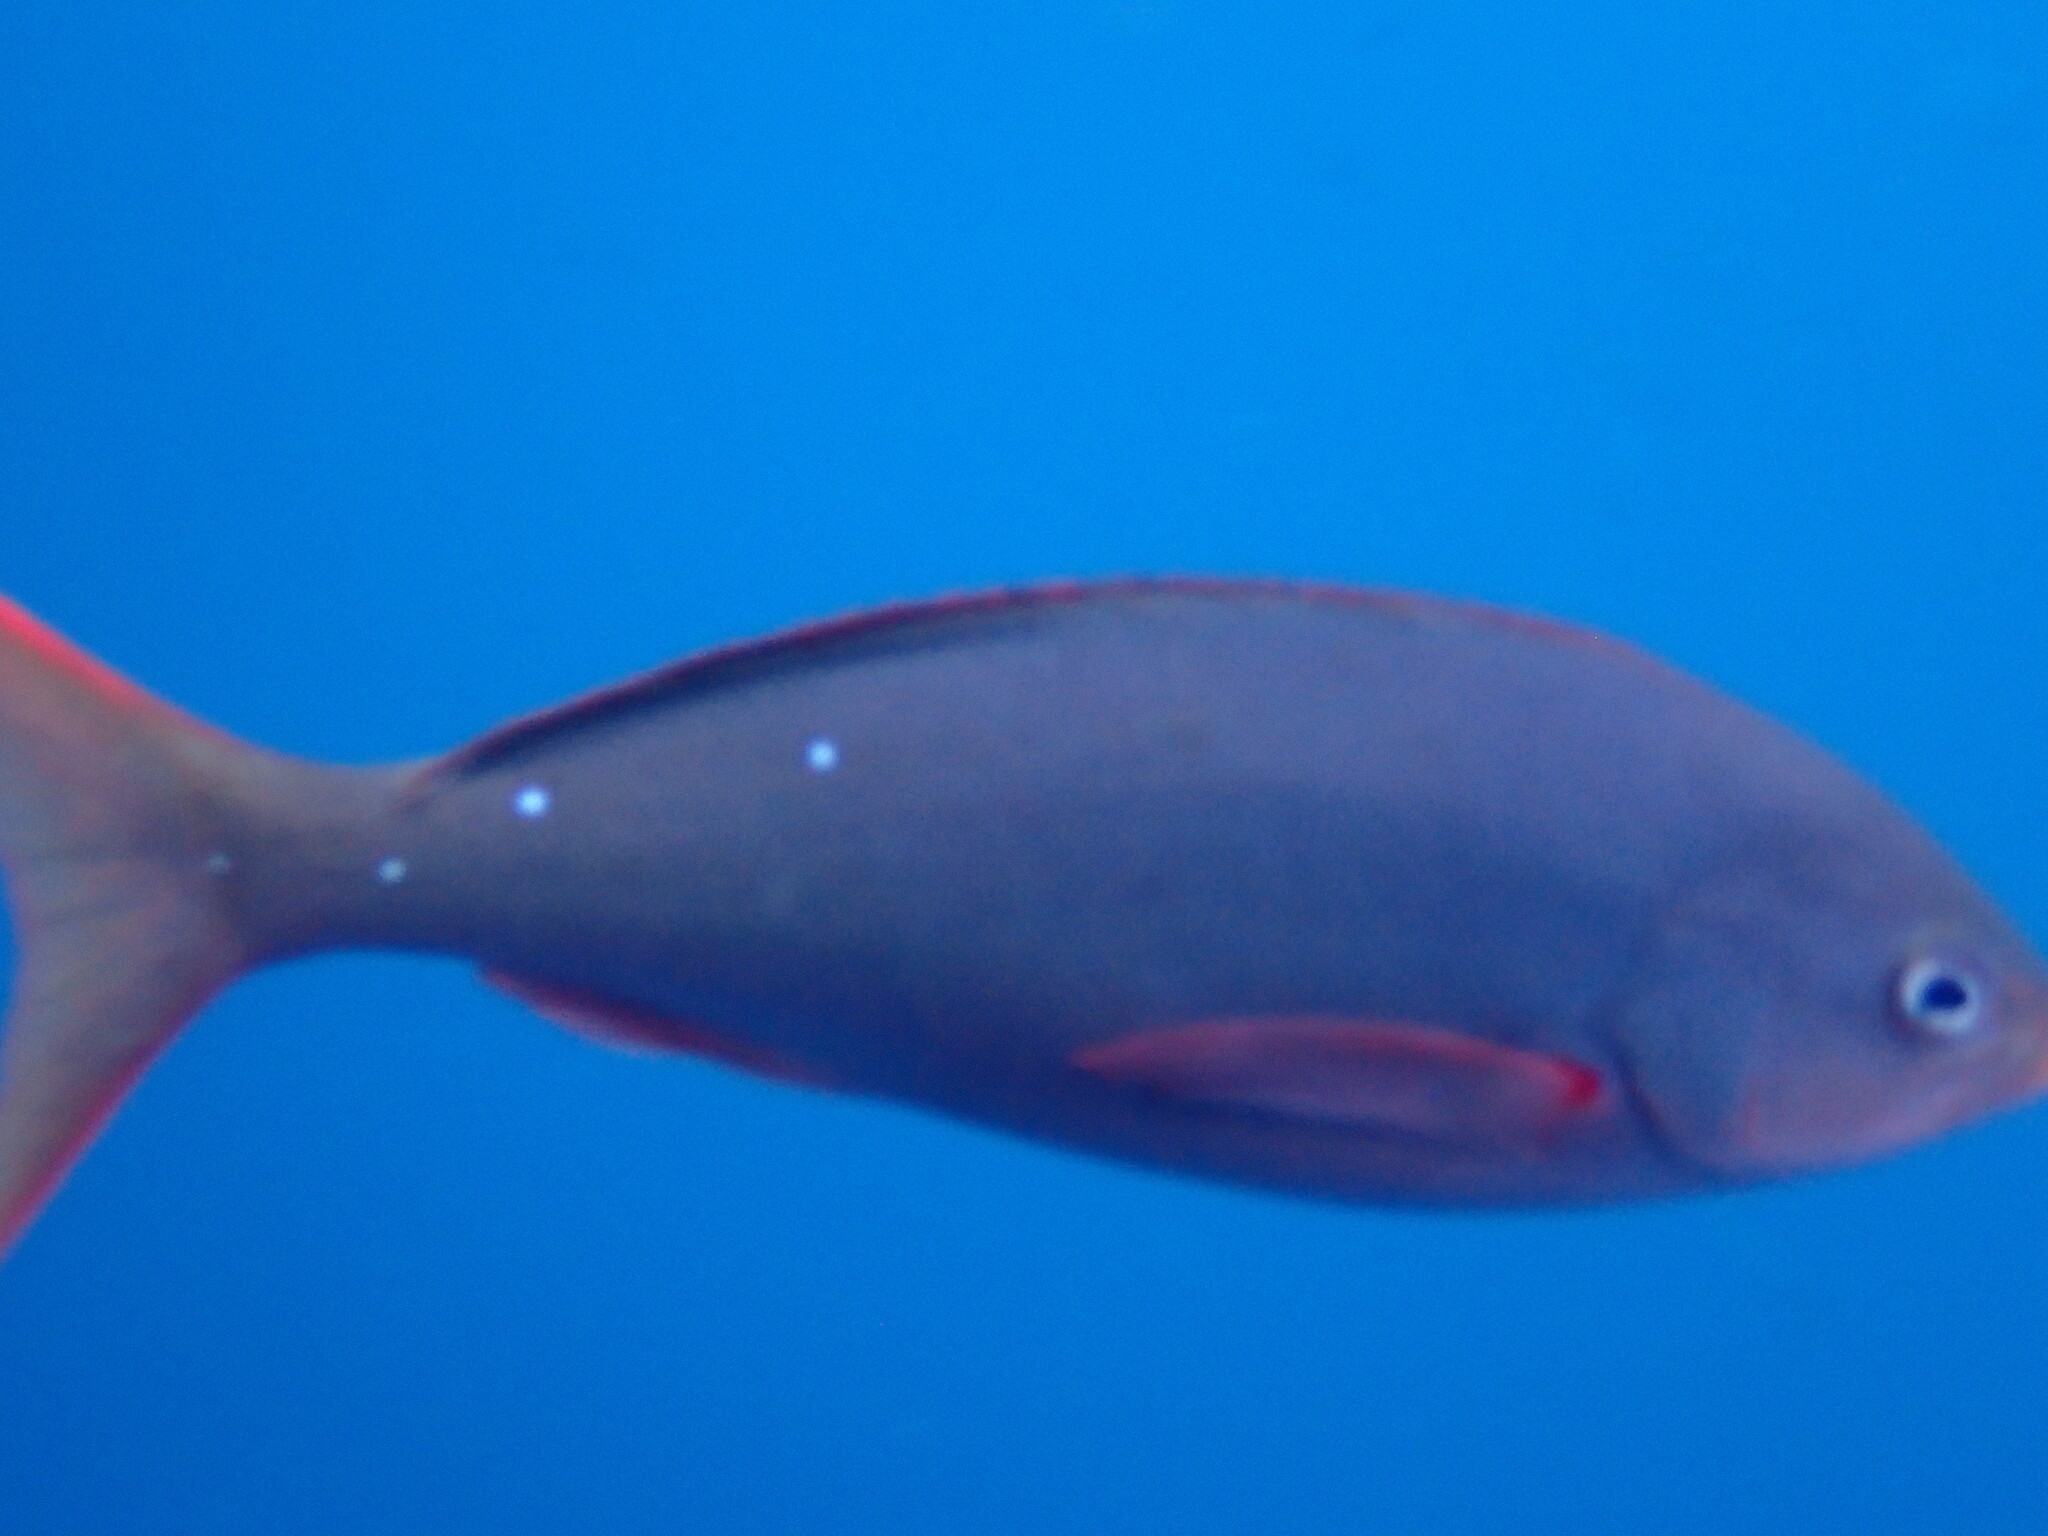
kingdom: Animalia
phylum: Chordata
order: Perciformes
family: Serranidae
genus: Paranthias
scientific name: Paranthias colonus
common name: Pacific creole-fish
